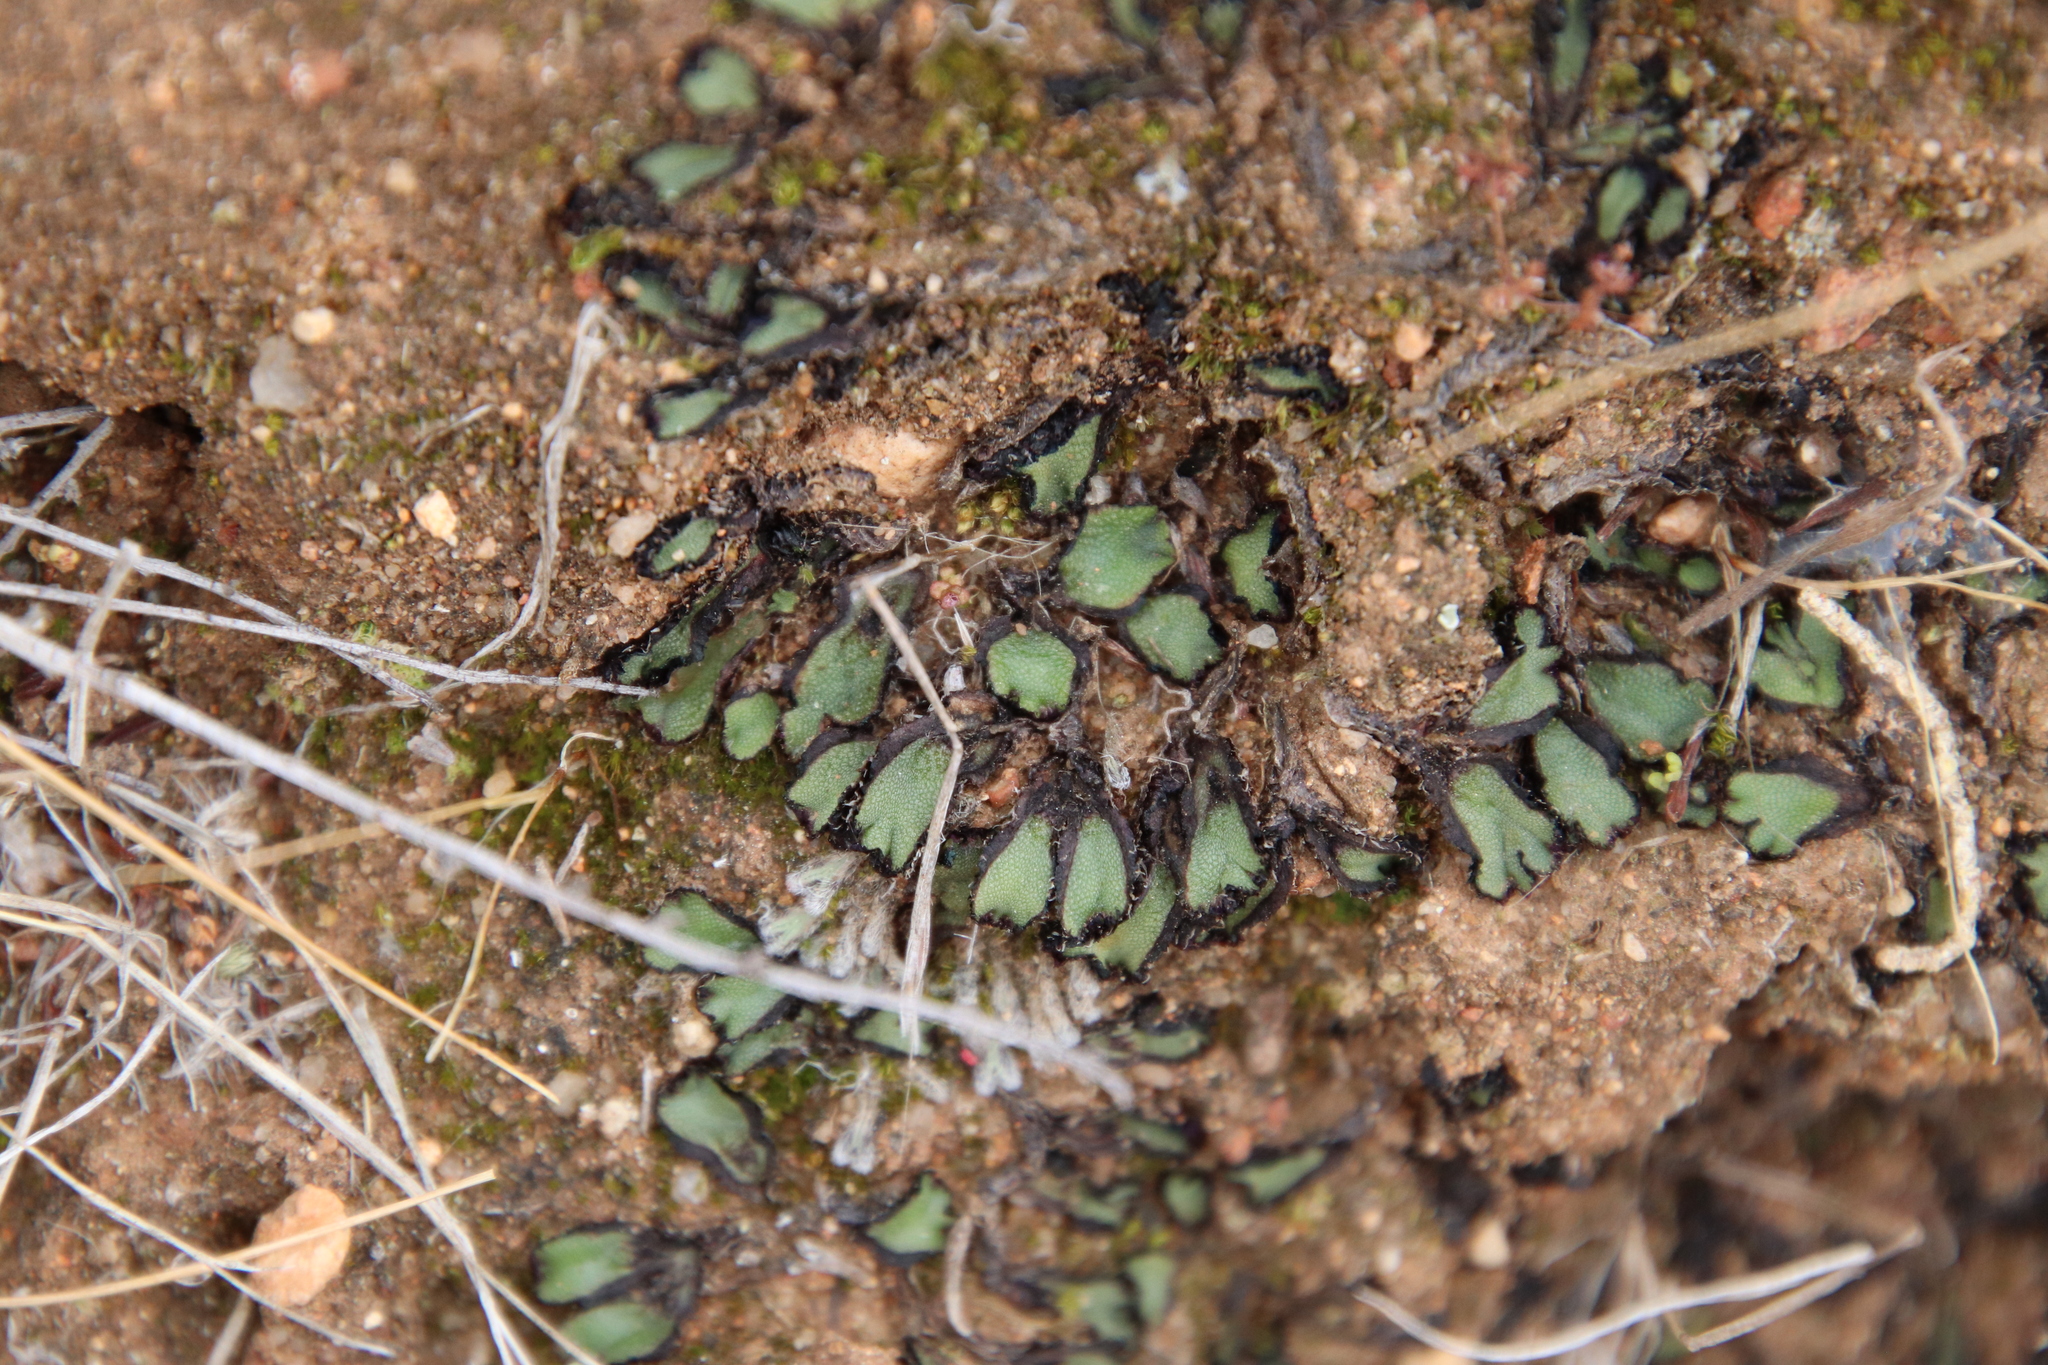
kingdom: Plantae
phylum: Marchantiophyta
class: Marchantiopsida
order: Marchantiales
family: Aytoniaceae
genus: Asterella
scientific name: Asterella californica
